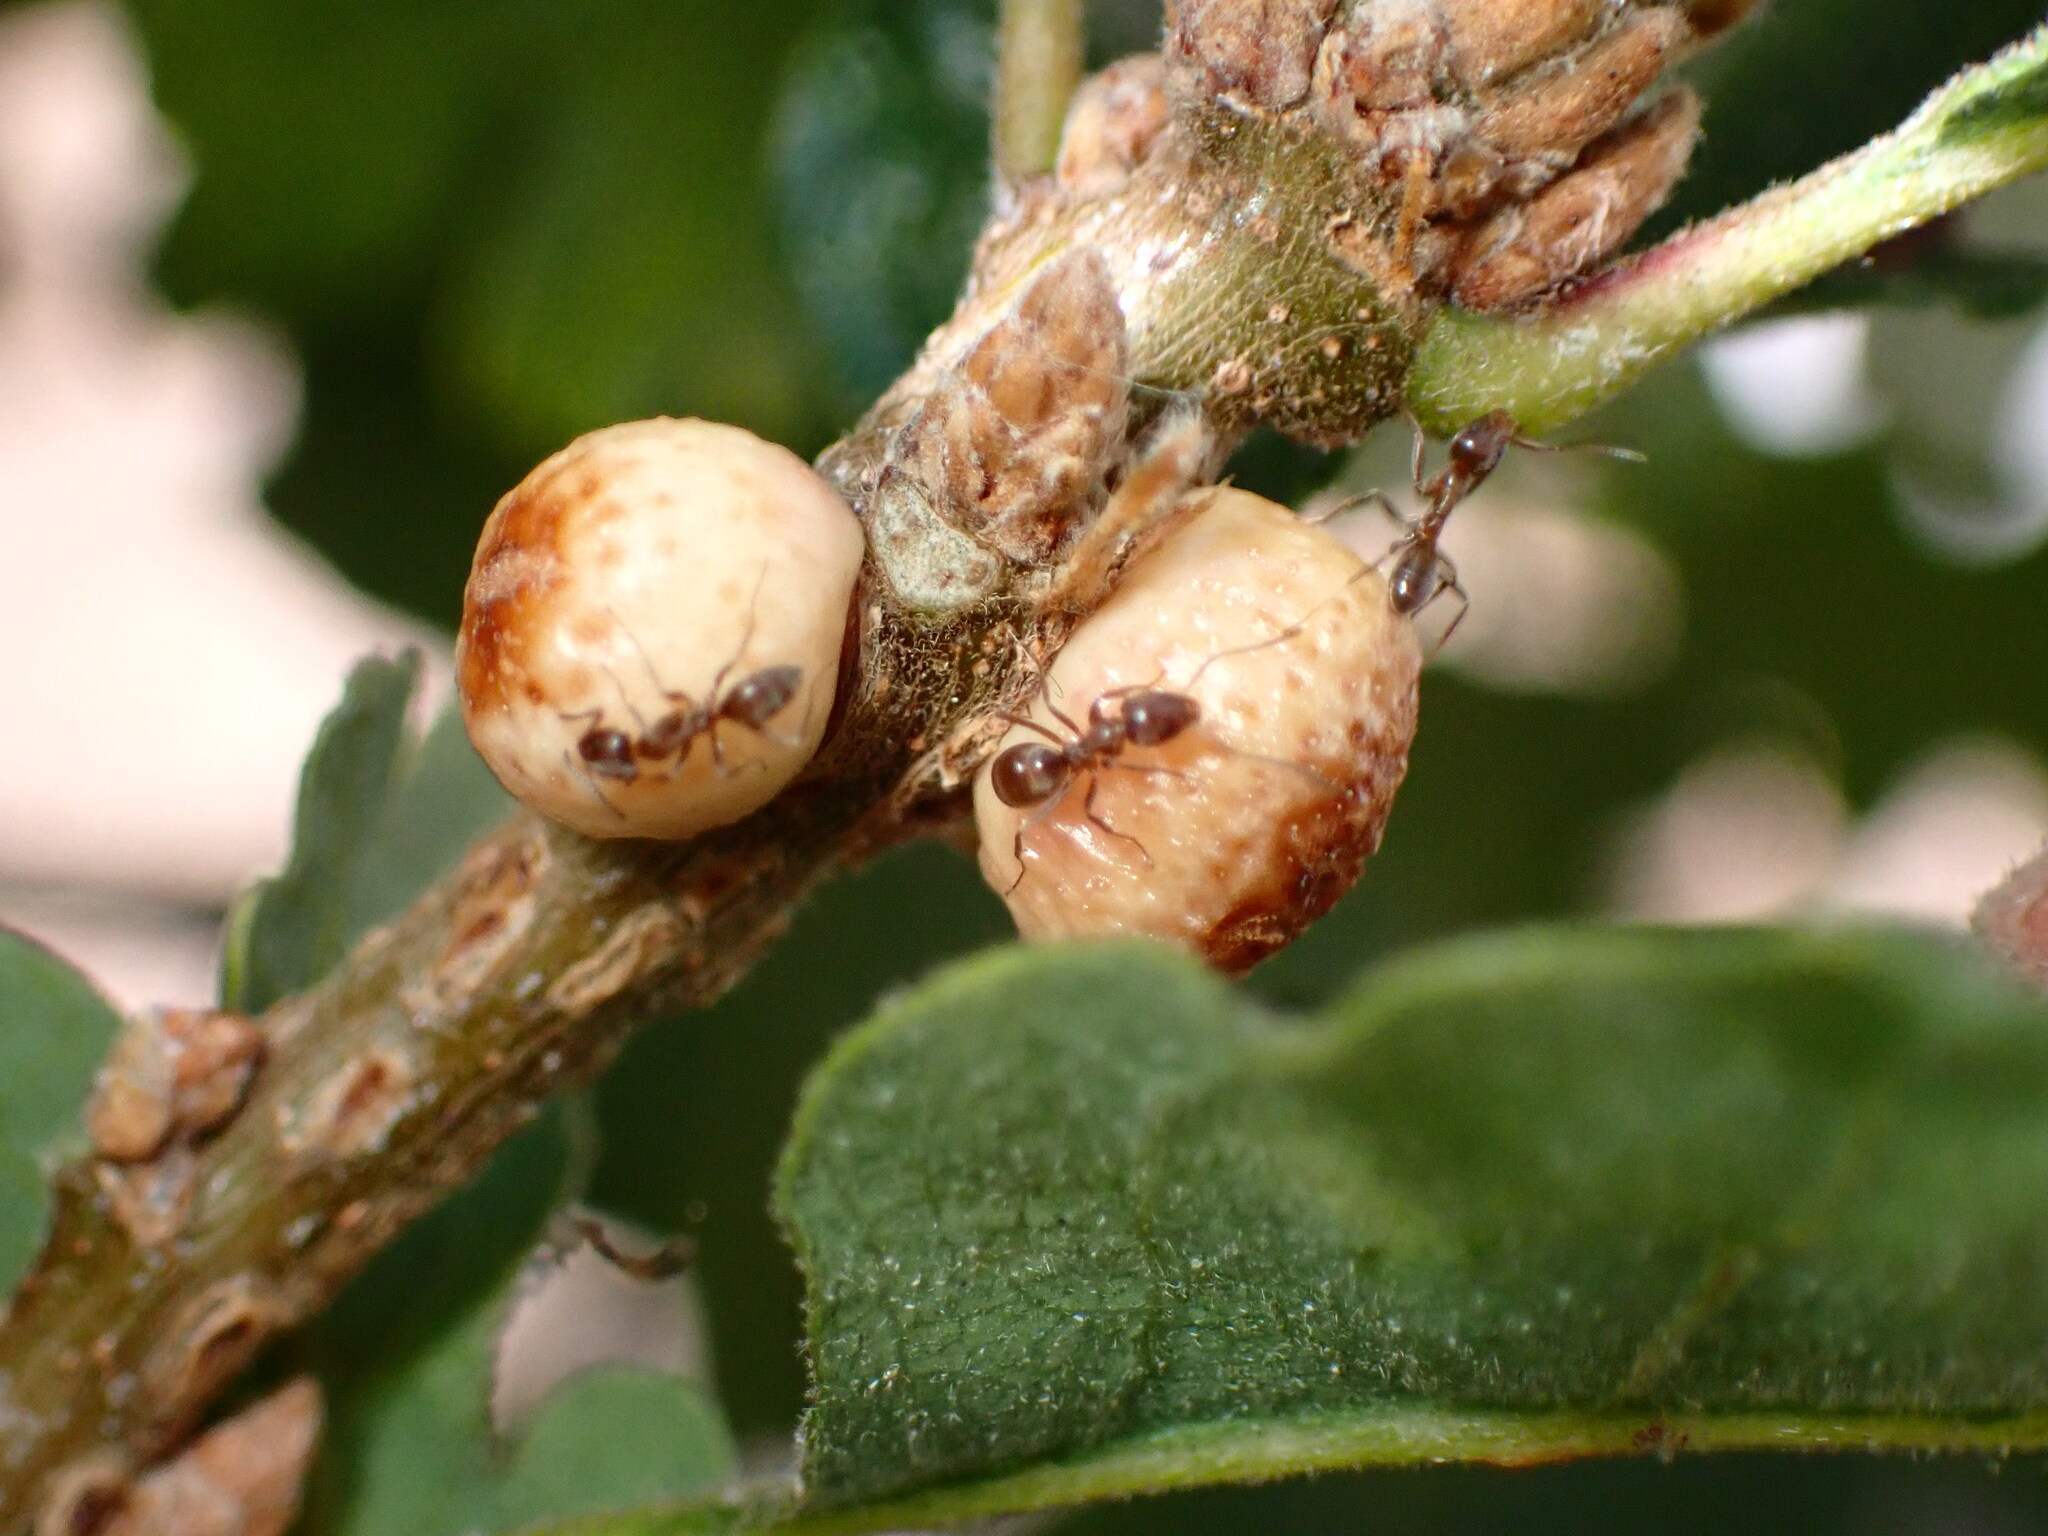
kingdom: Animalia
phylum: Arthropoda
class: Insecta
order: Hymenoptera
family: Cynipidae
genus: Disholcaspis
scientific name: Disholcaspis
